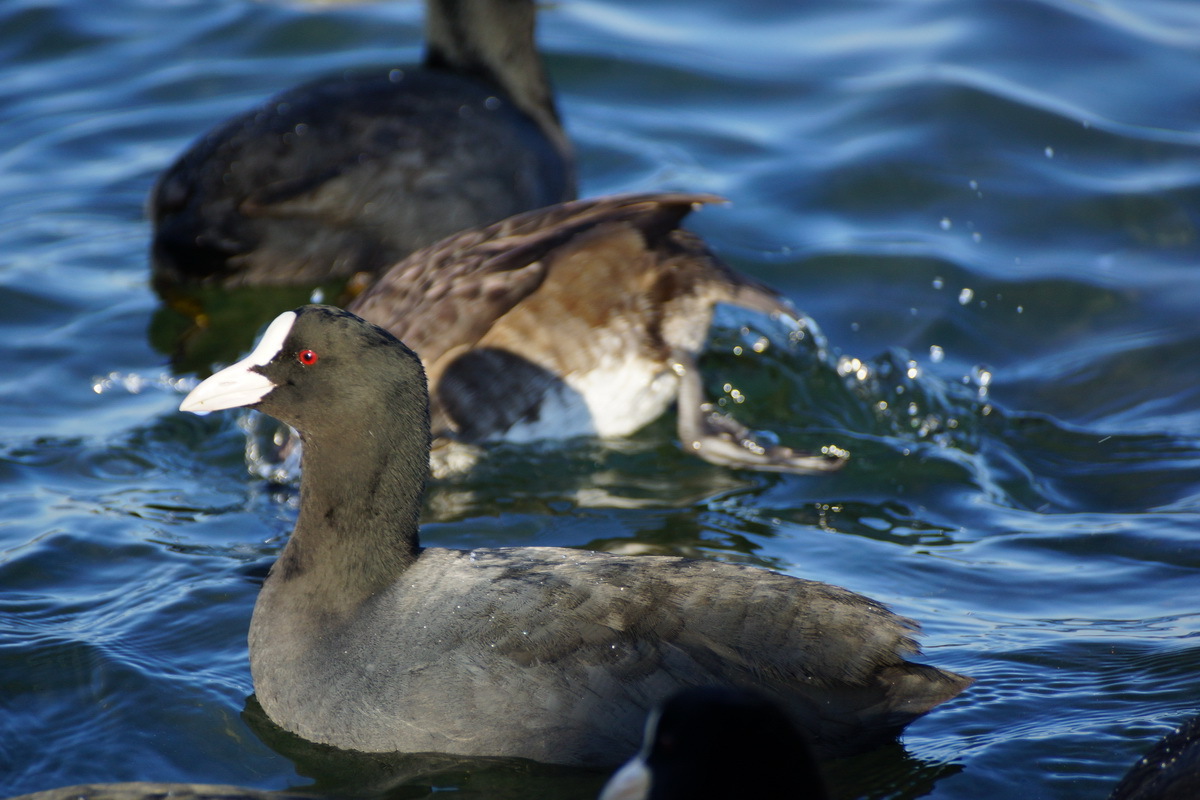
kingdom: Animalia
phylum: Chordata
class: Aves
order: Gruiformes
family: Rallidae
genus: Fulica
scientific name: Fulica atra
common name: Eurasian coot
